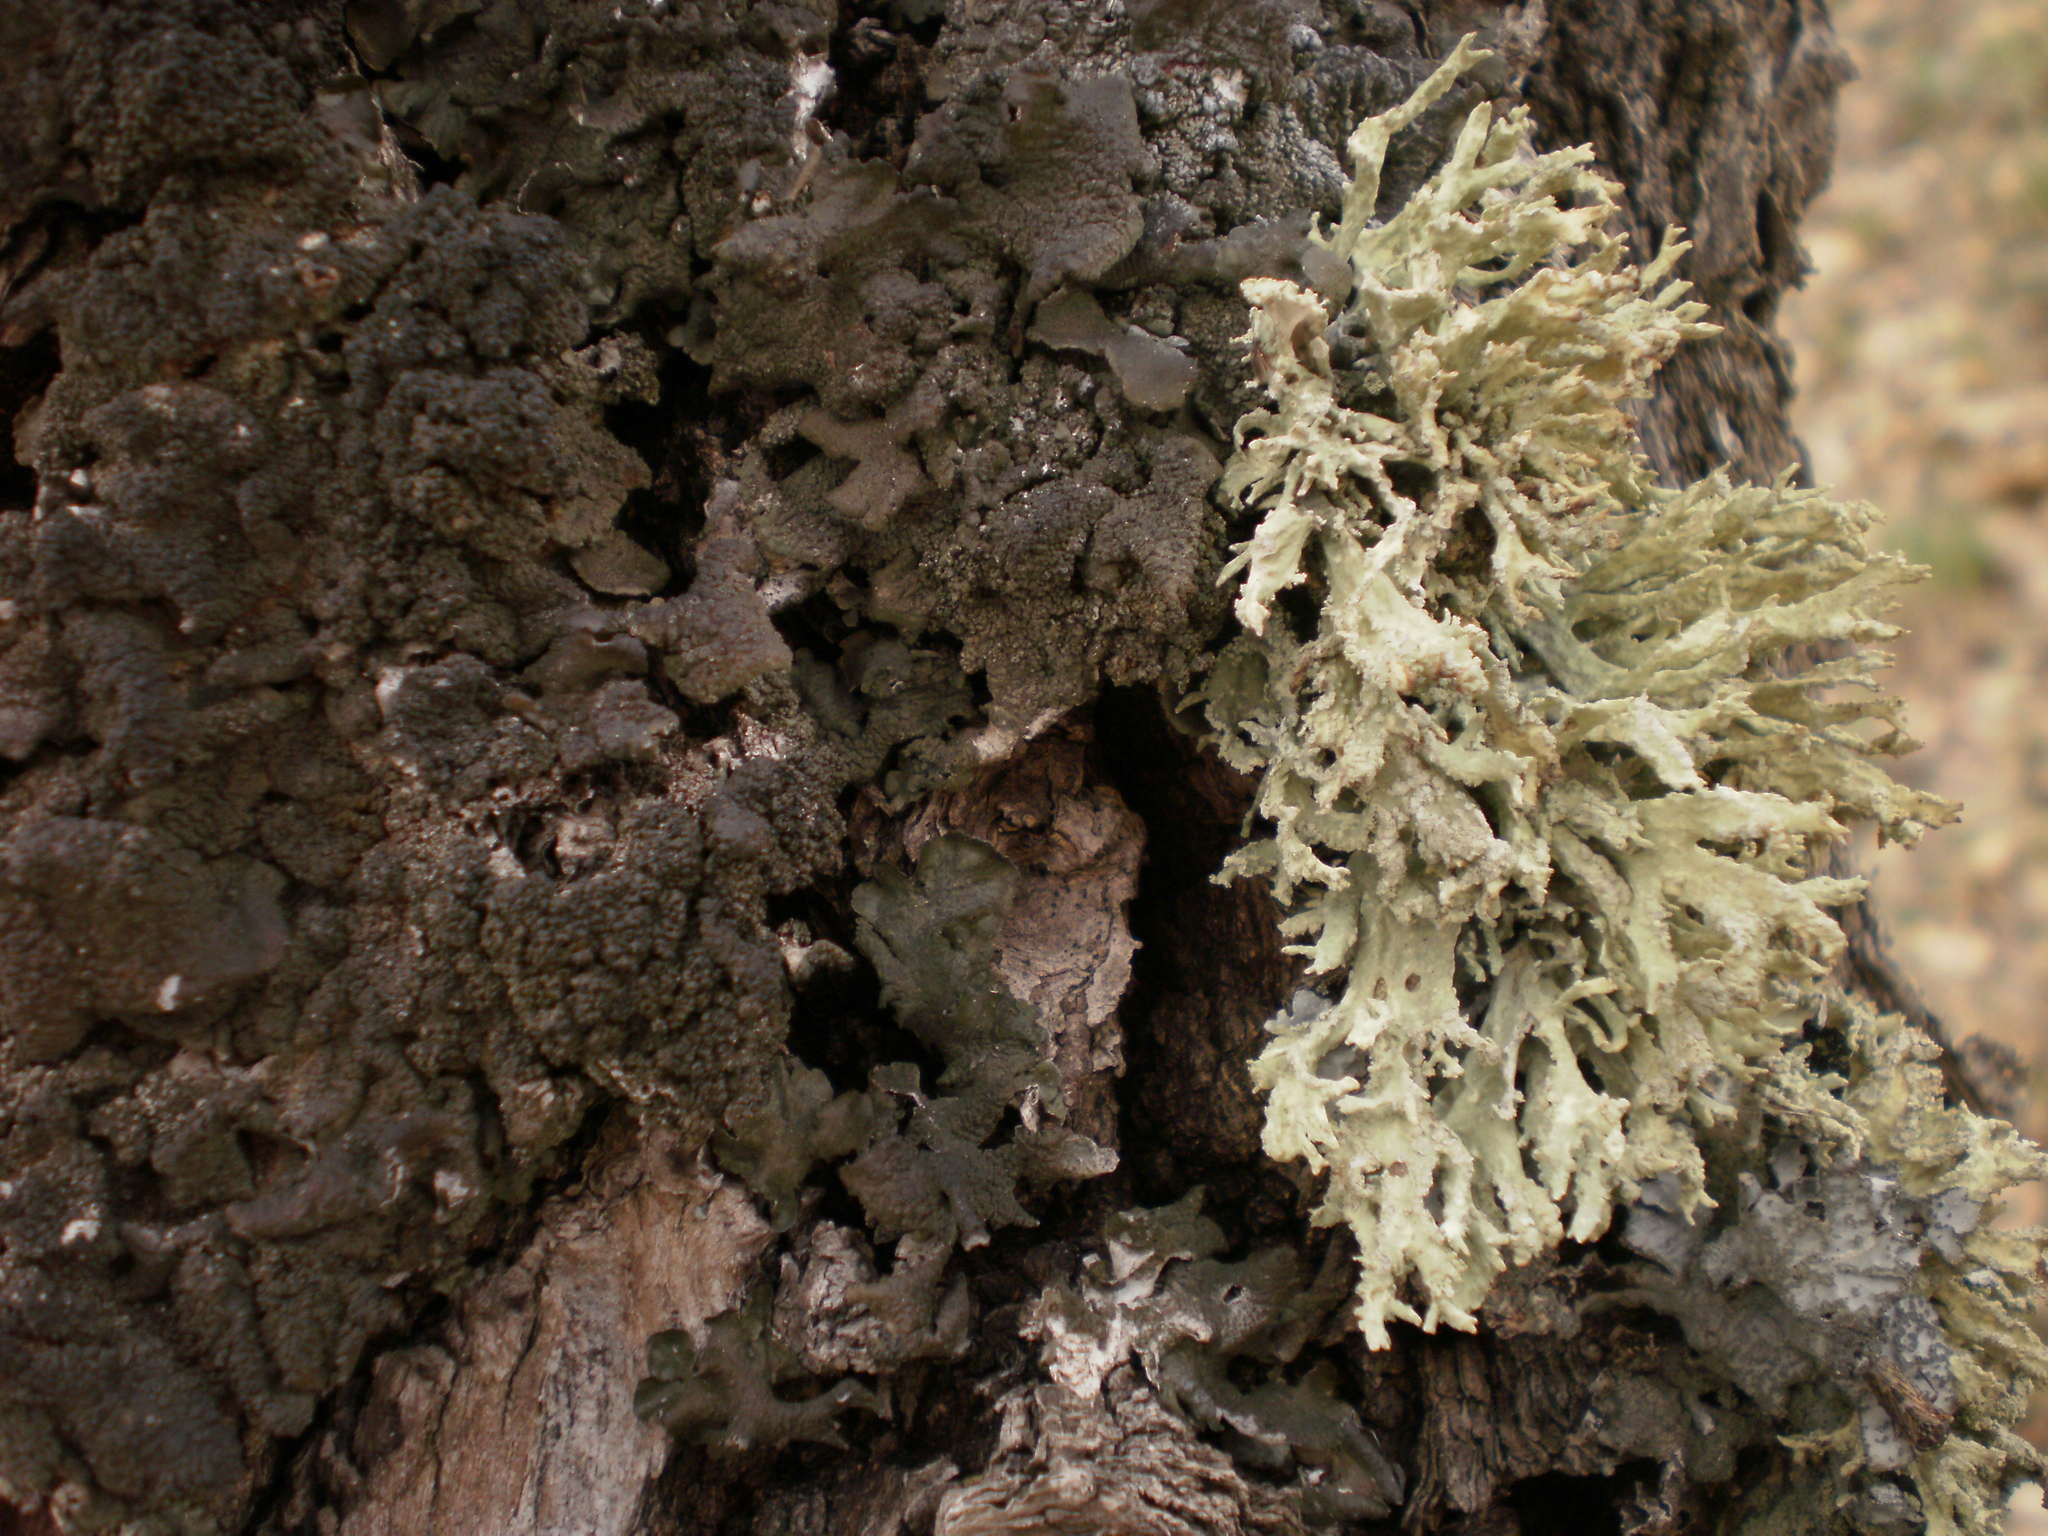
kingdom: Fungi
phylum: Ascomycota
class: Lecanoromycetes
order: Lecanorales
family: Parmeliaceae
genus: Evernia
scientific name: Evernia prunastri
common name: Oak moss
